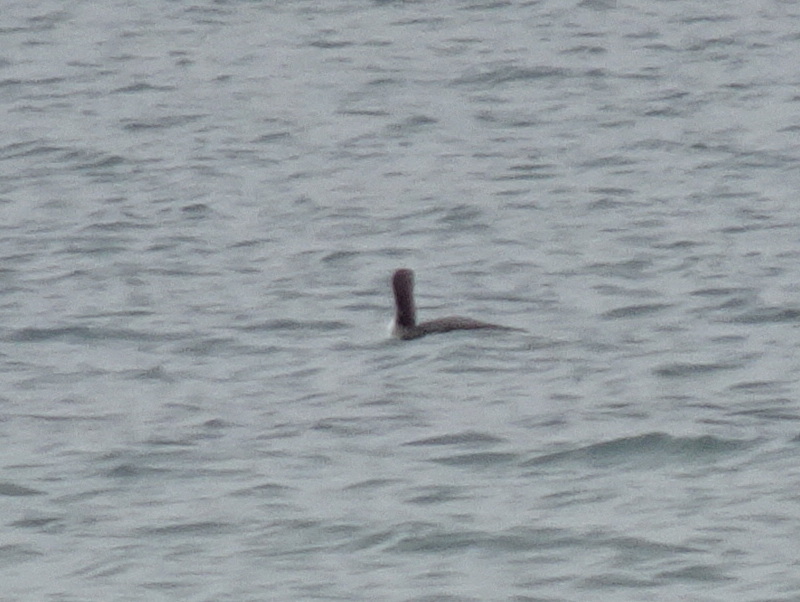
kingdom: Animalia
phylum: Chordata
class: Aves
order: Gaviiformes
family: Gaviidae
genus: Gavia
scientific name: Gavia immer
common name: Common loon
